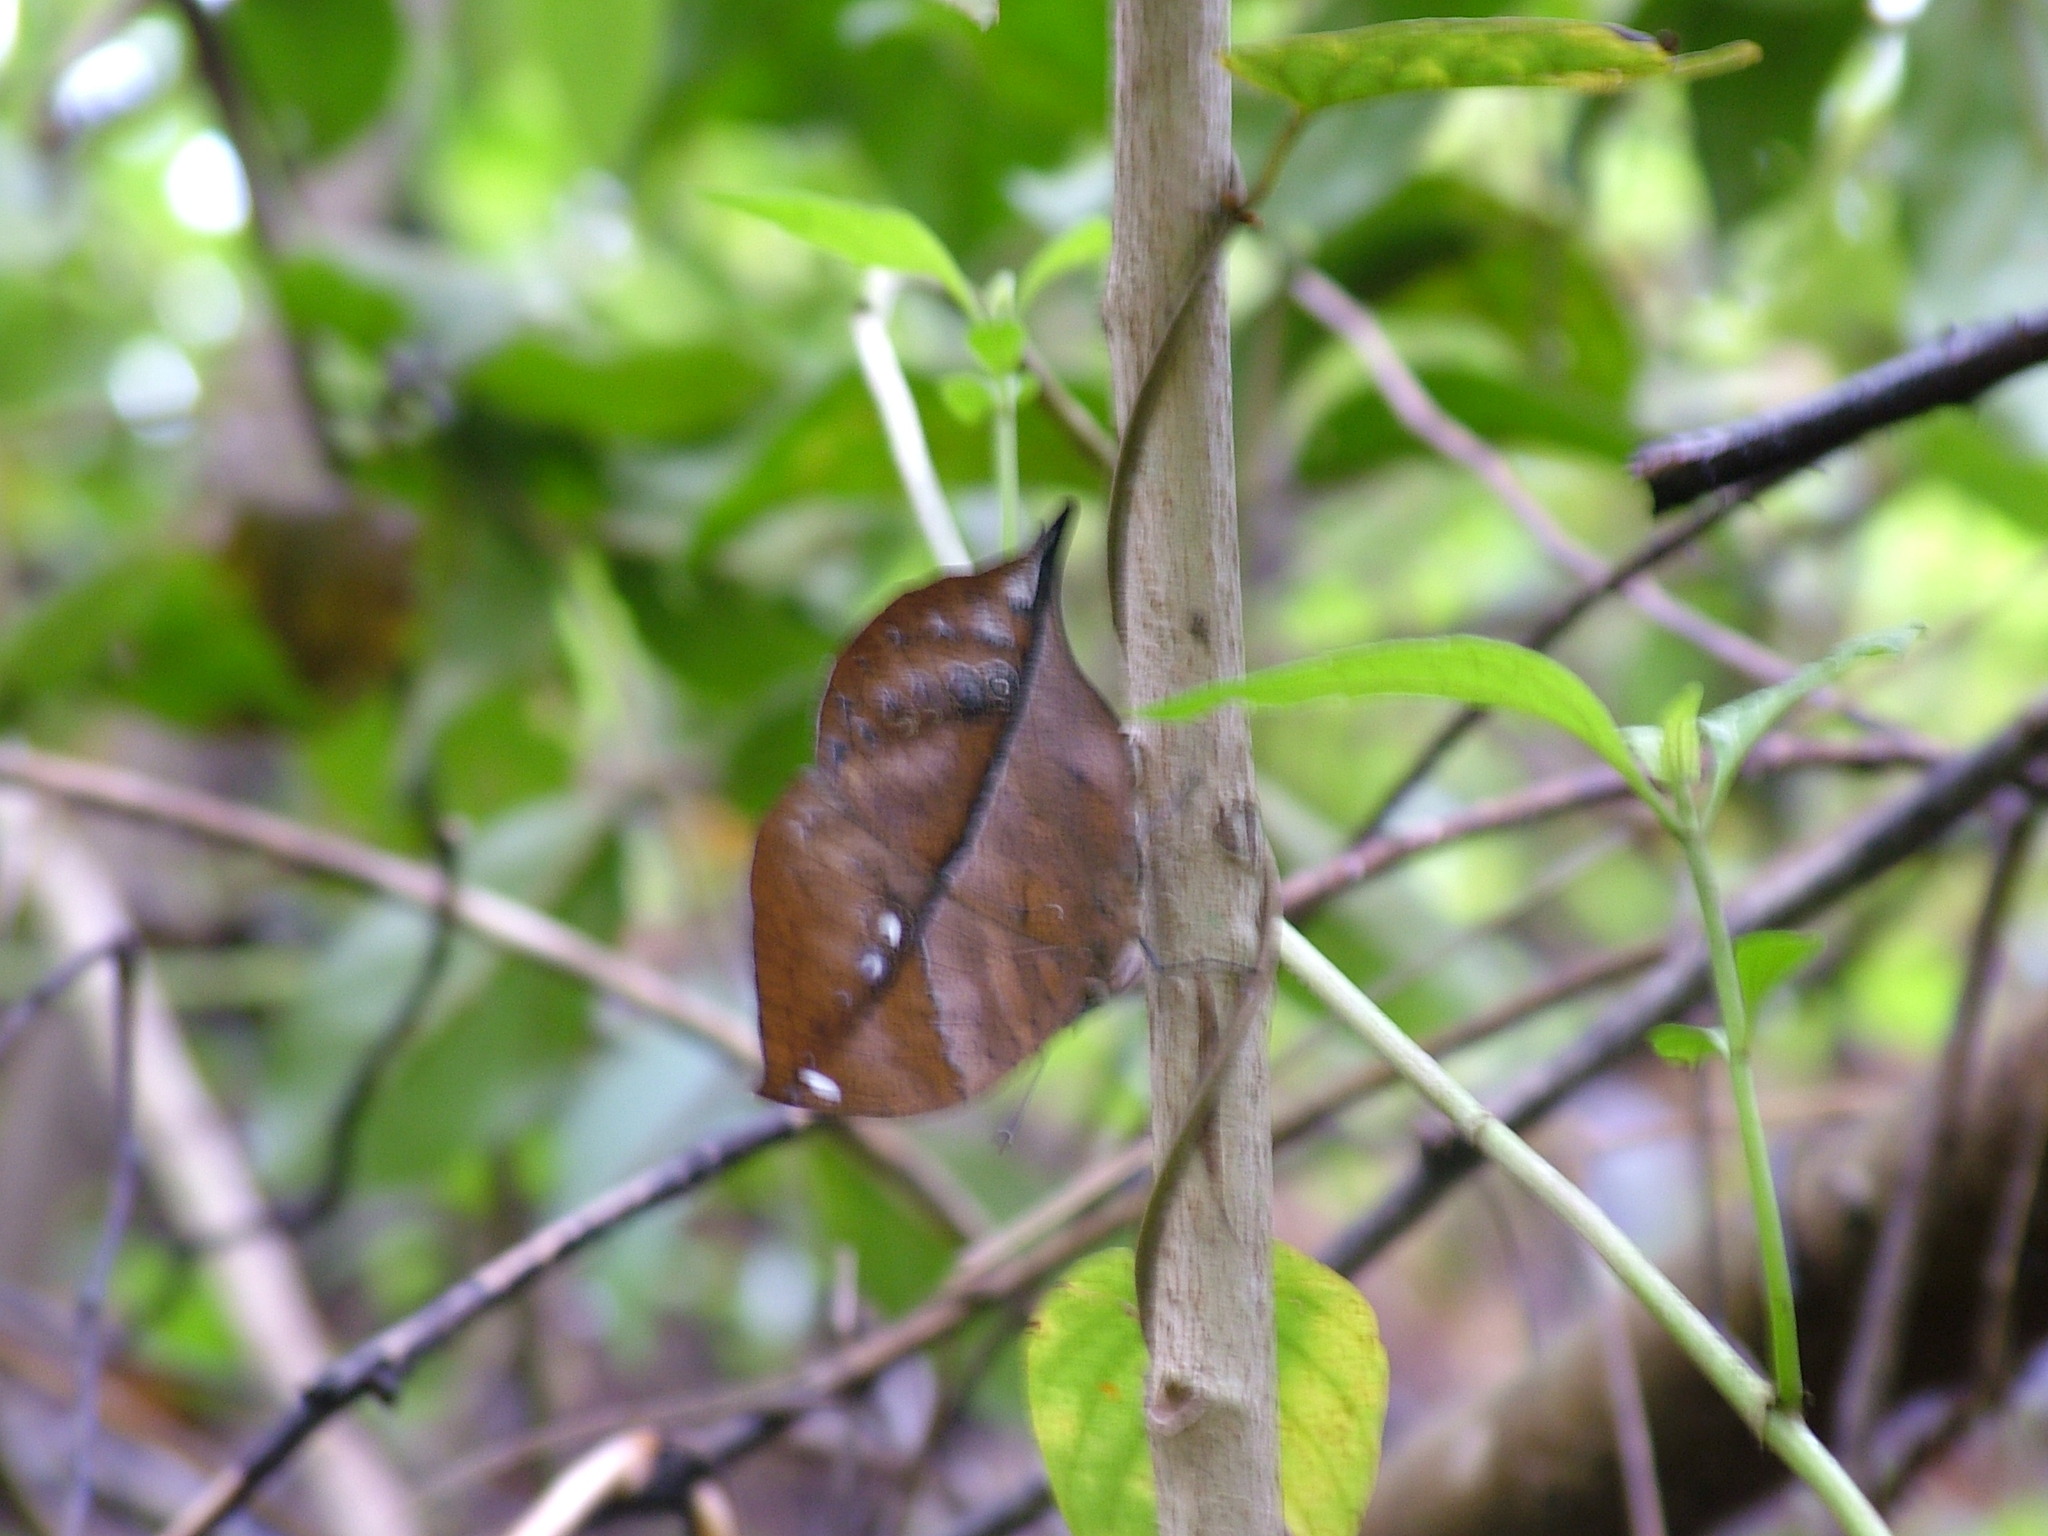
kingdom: Animalia
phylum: Arthropoda
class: Insecta
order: Lepidoptera
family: Nymphalidae
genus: Kallima
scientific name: Kallima horsfieldii
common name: Sahyadri blue oakleaf
